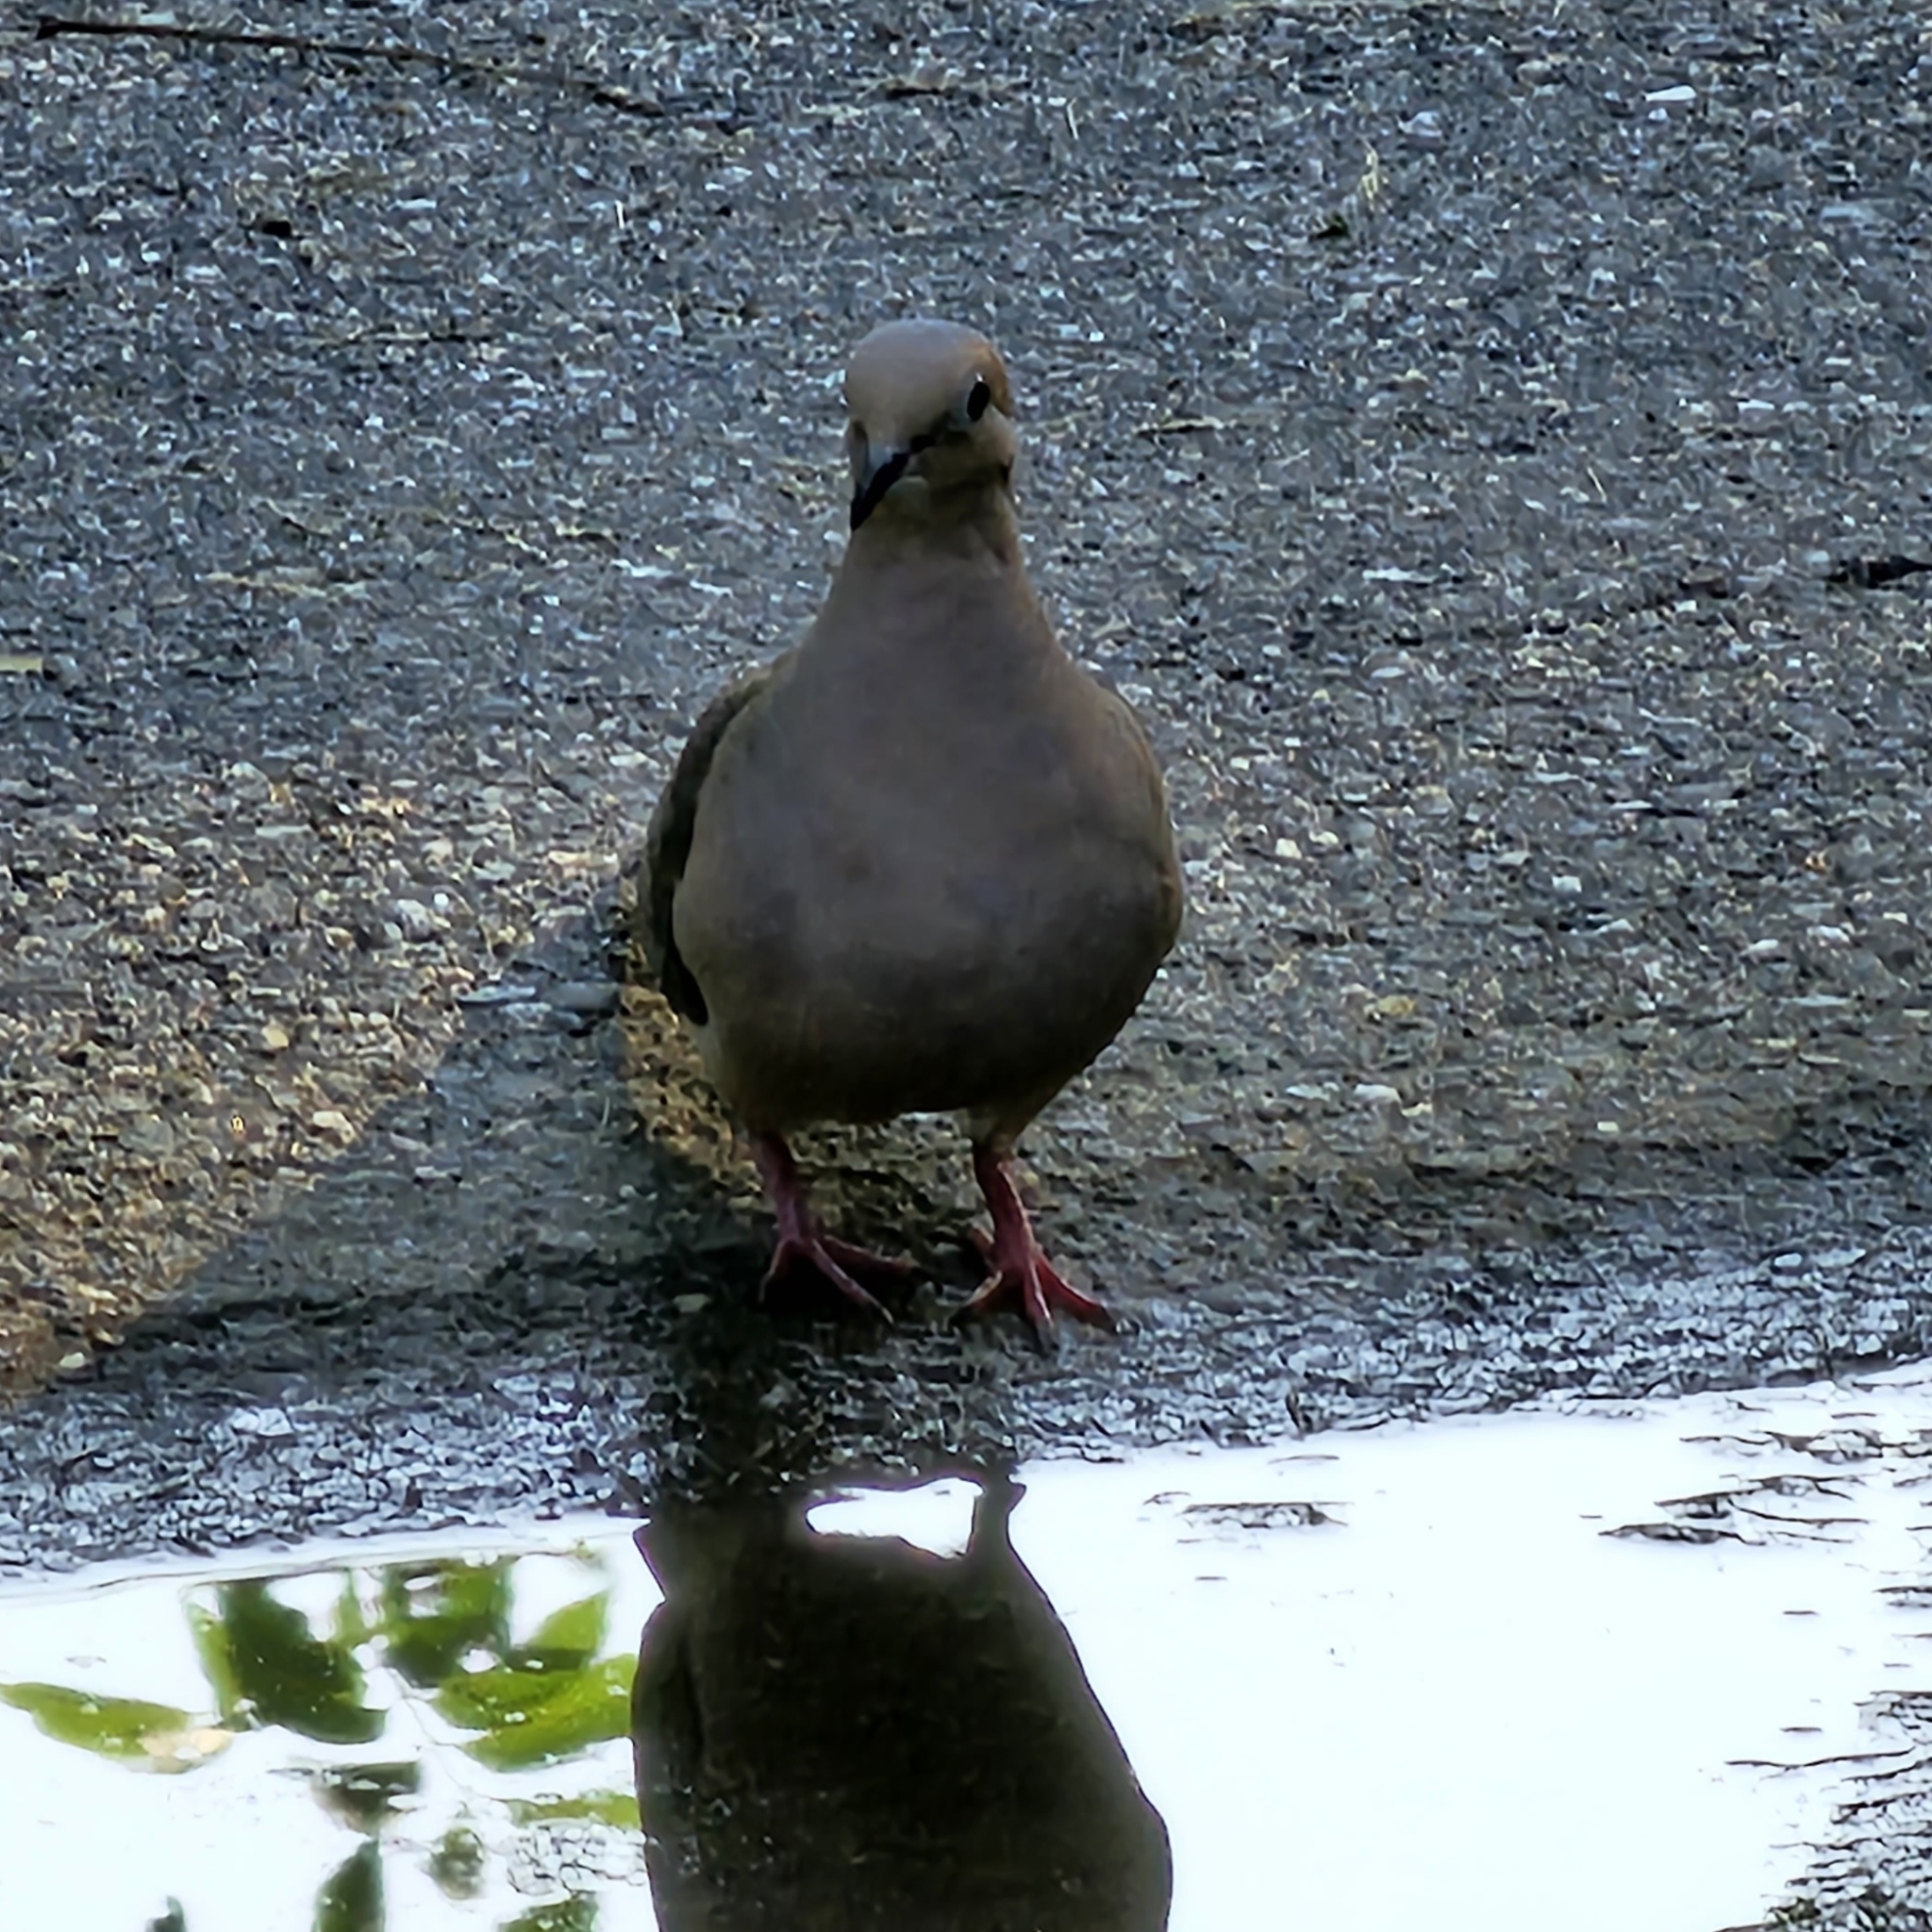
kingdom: Animalia
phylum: Chordata
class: Aves
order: Columbiformes
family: Columbidae
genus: Zenaida
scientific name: Zenaida macroura
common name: Mourning dove
